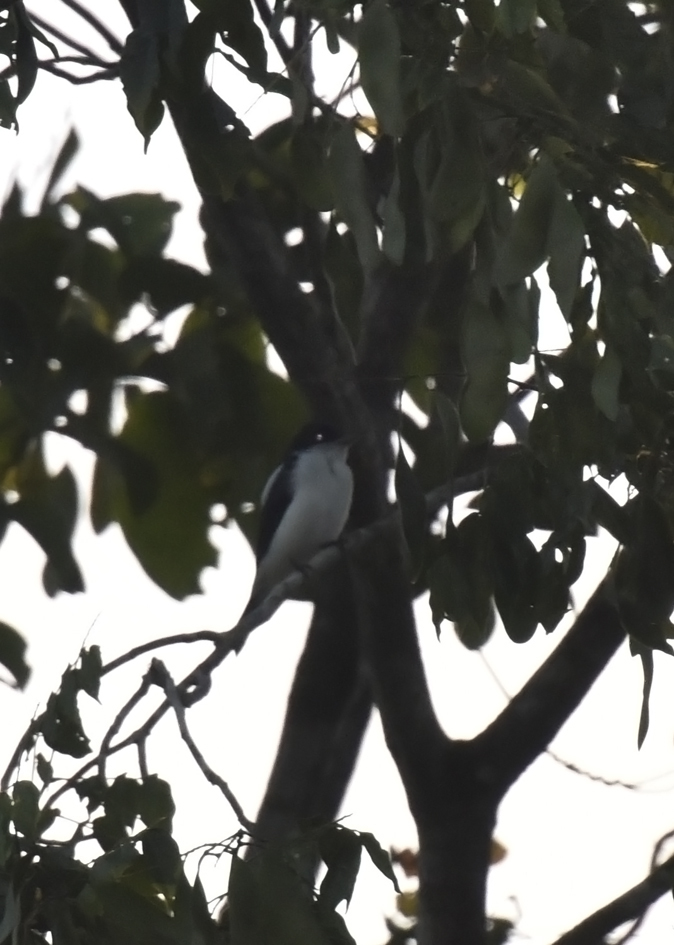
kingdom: Animalia
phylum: Chordata
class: Aves
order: Passeriformes
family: Cotingidae
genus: Pachyramphus
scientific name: Pachyramphus surinamus
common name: Glossy-backed becard
